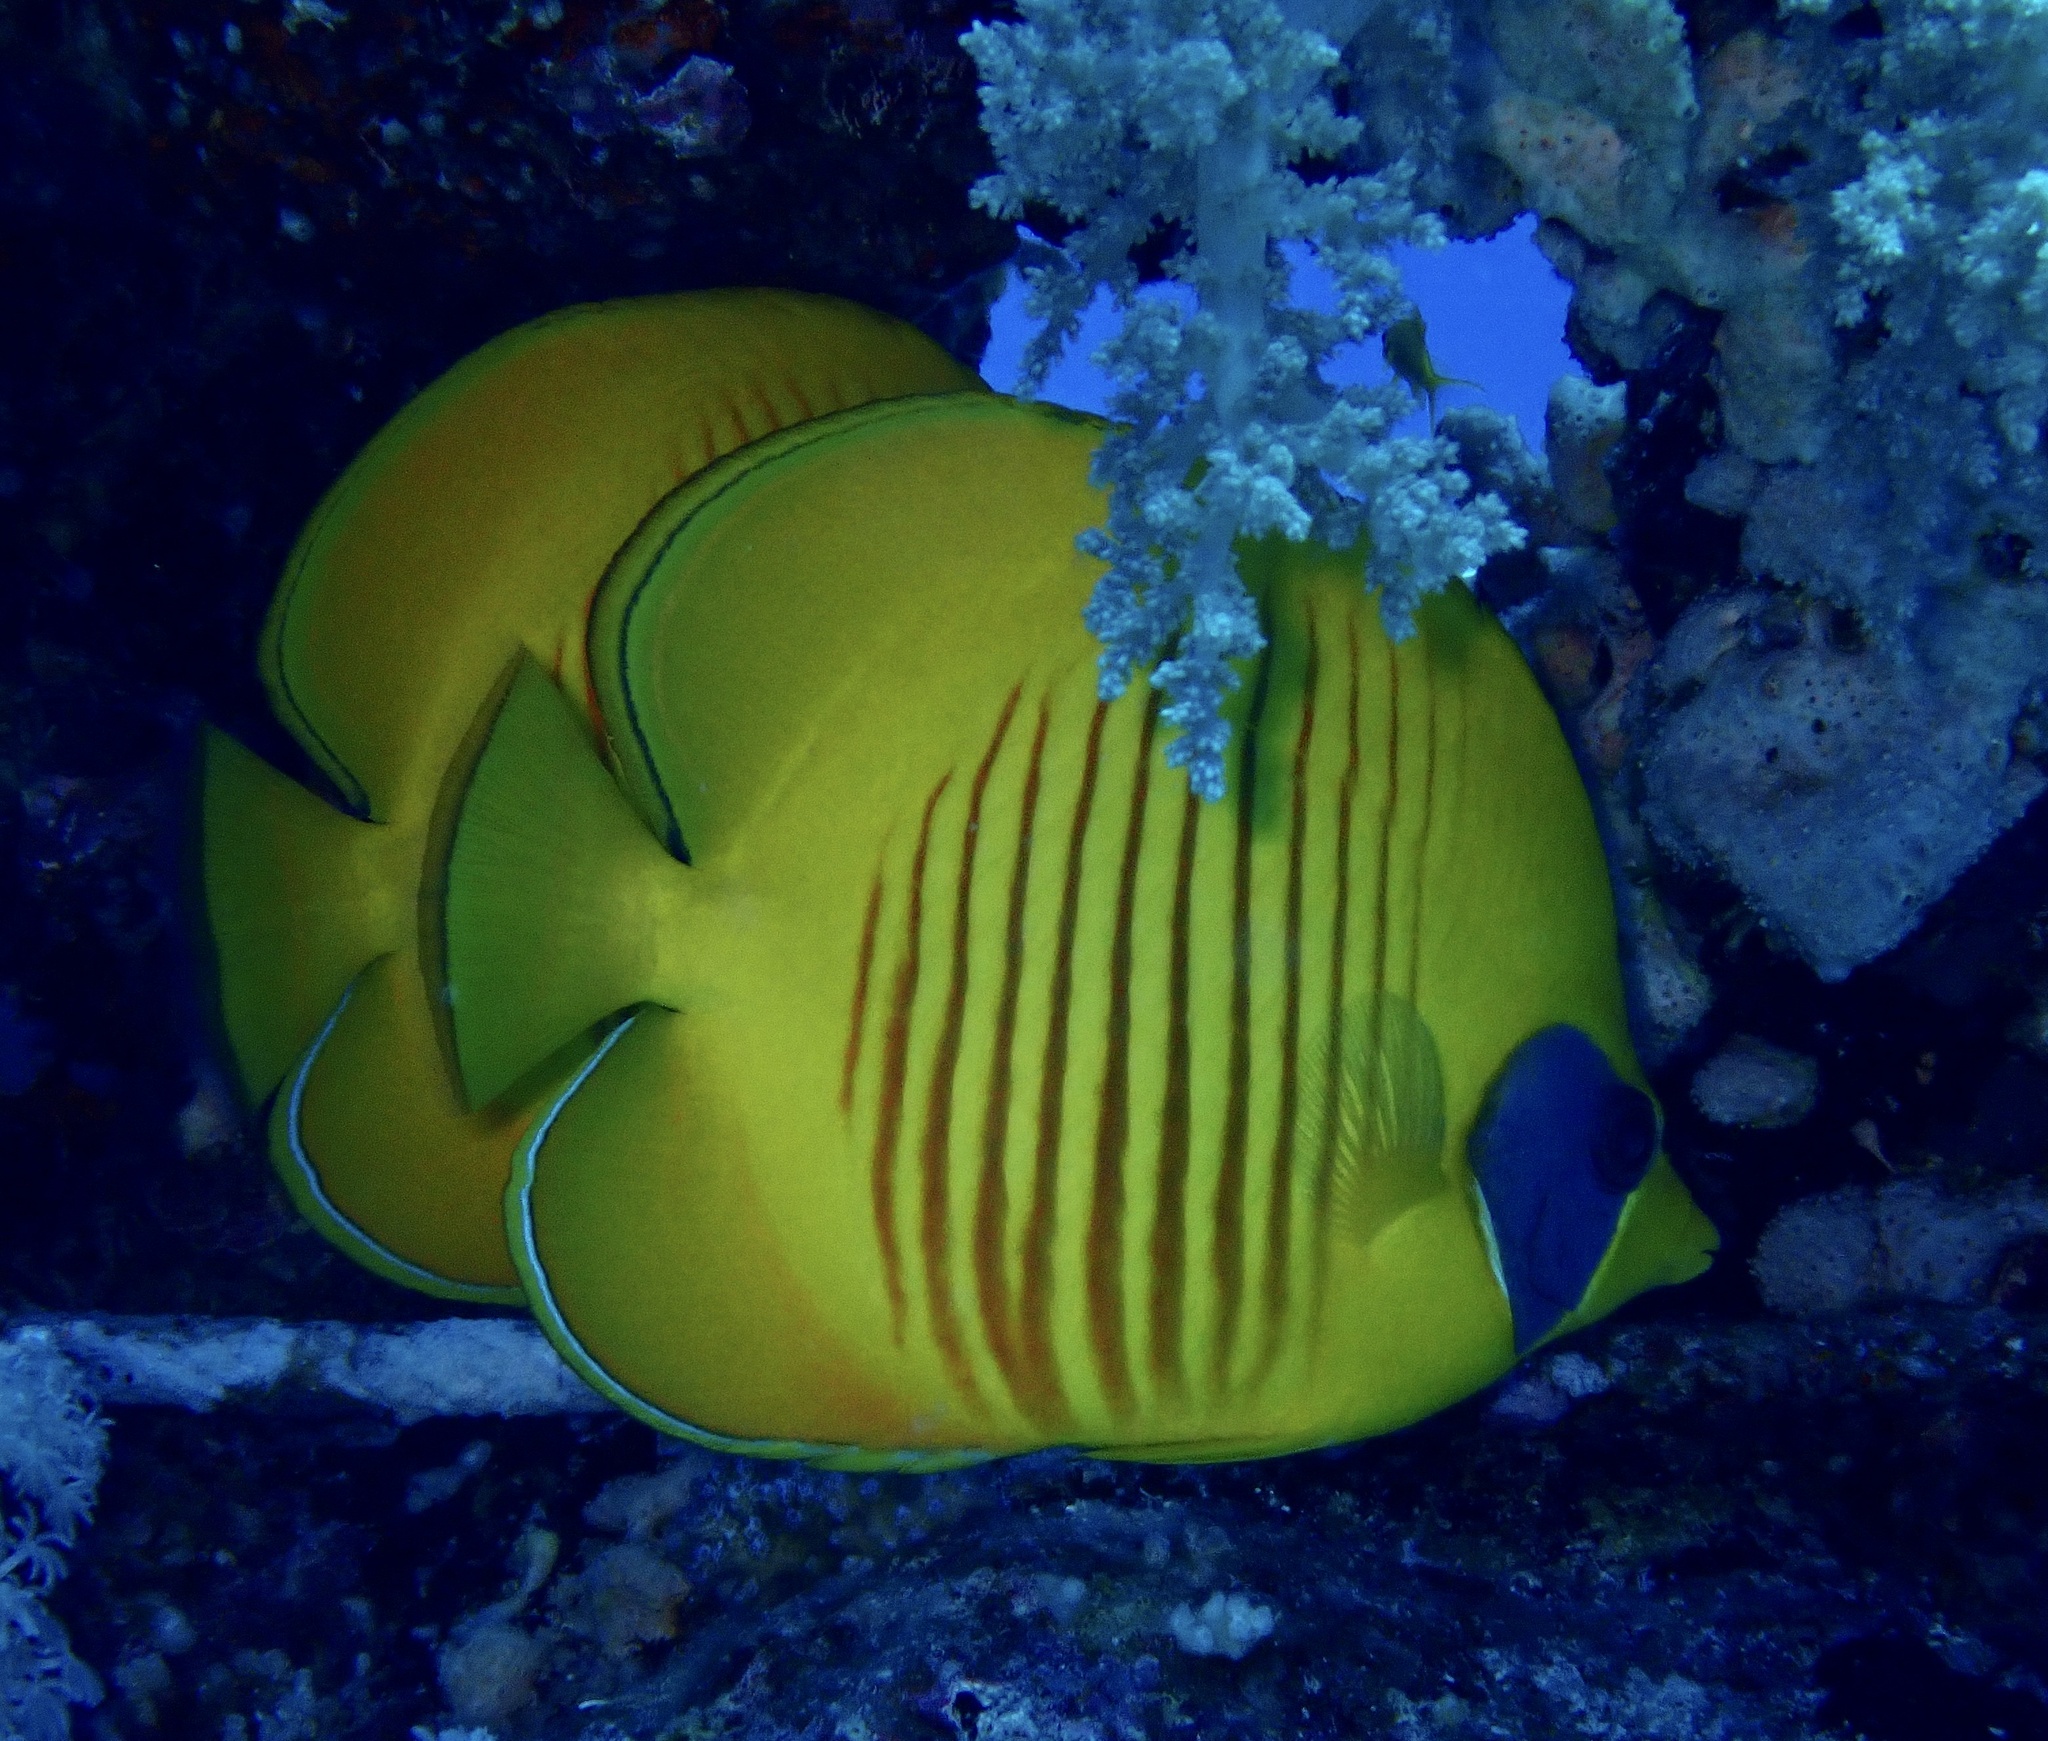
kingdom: Animalia
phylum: Chordata
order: Perciformes
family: Chaetodontidae
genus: Chaetodon
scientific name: Chaetodon semilarvatus
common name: Golden butterflyfish
